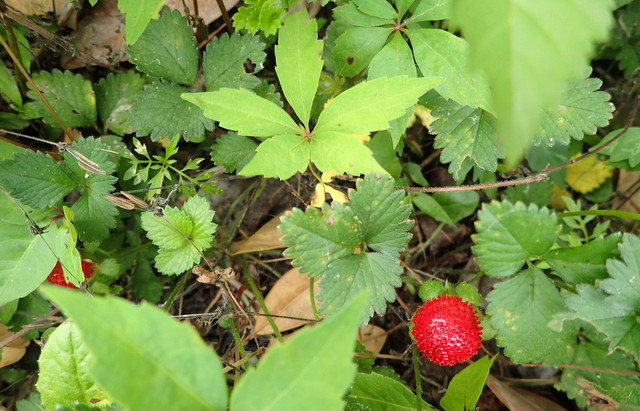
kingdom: Plantae
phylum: Tracheophyta
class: Magnoliopsida
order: Rosales
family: Rosaceae
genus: Potentilla
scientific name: Potentilla indica
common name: Yellow-flowered strawberry
